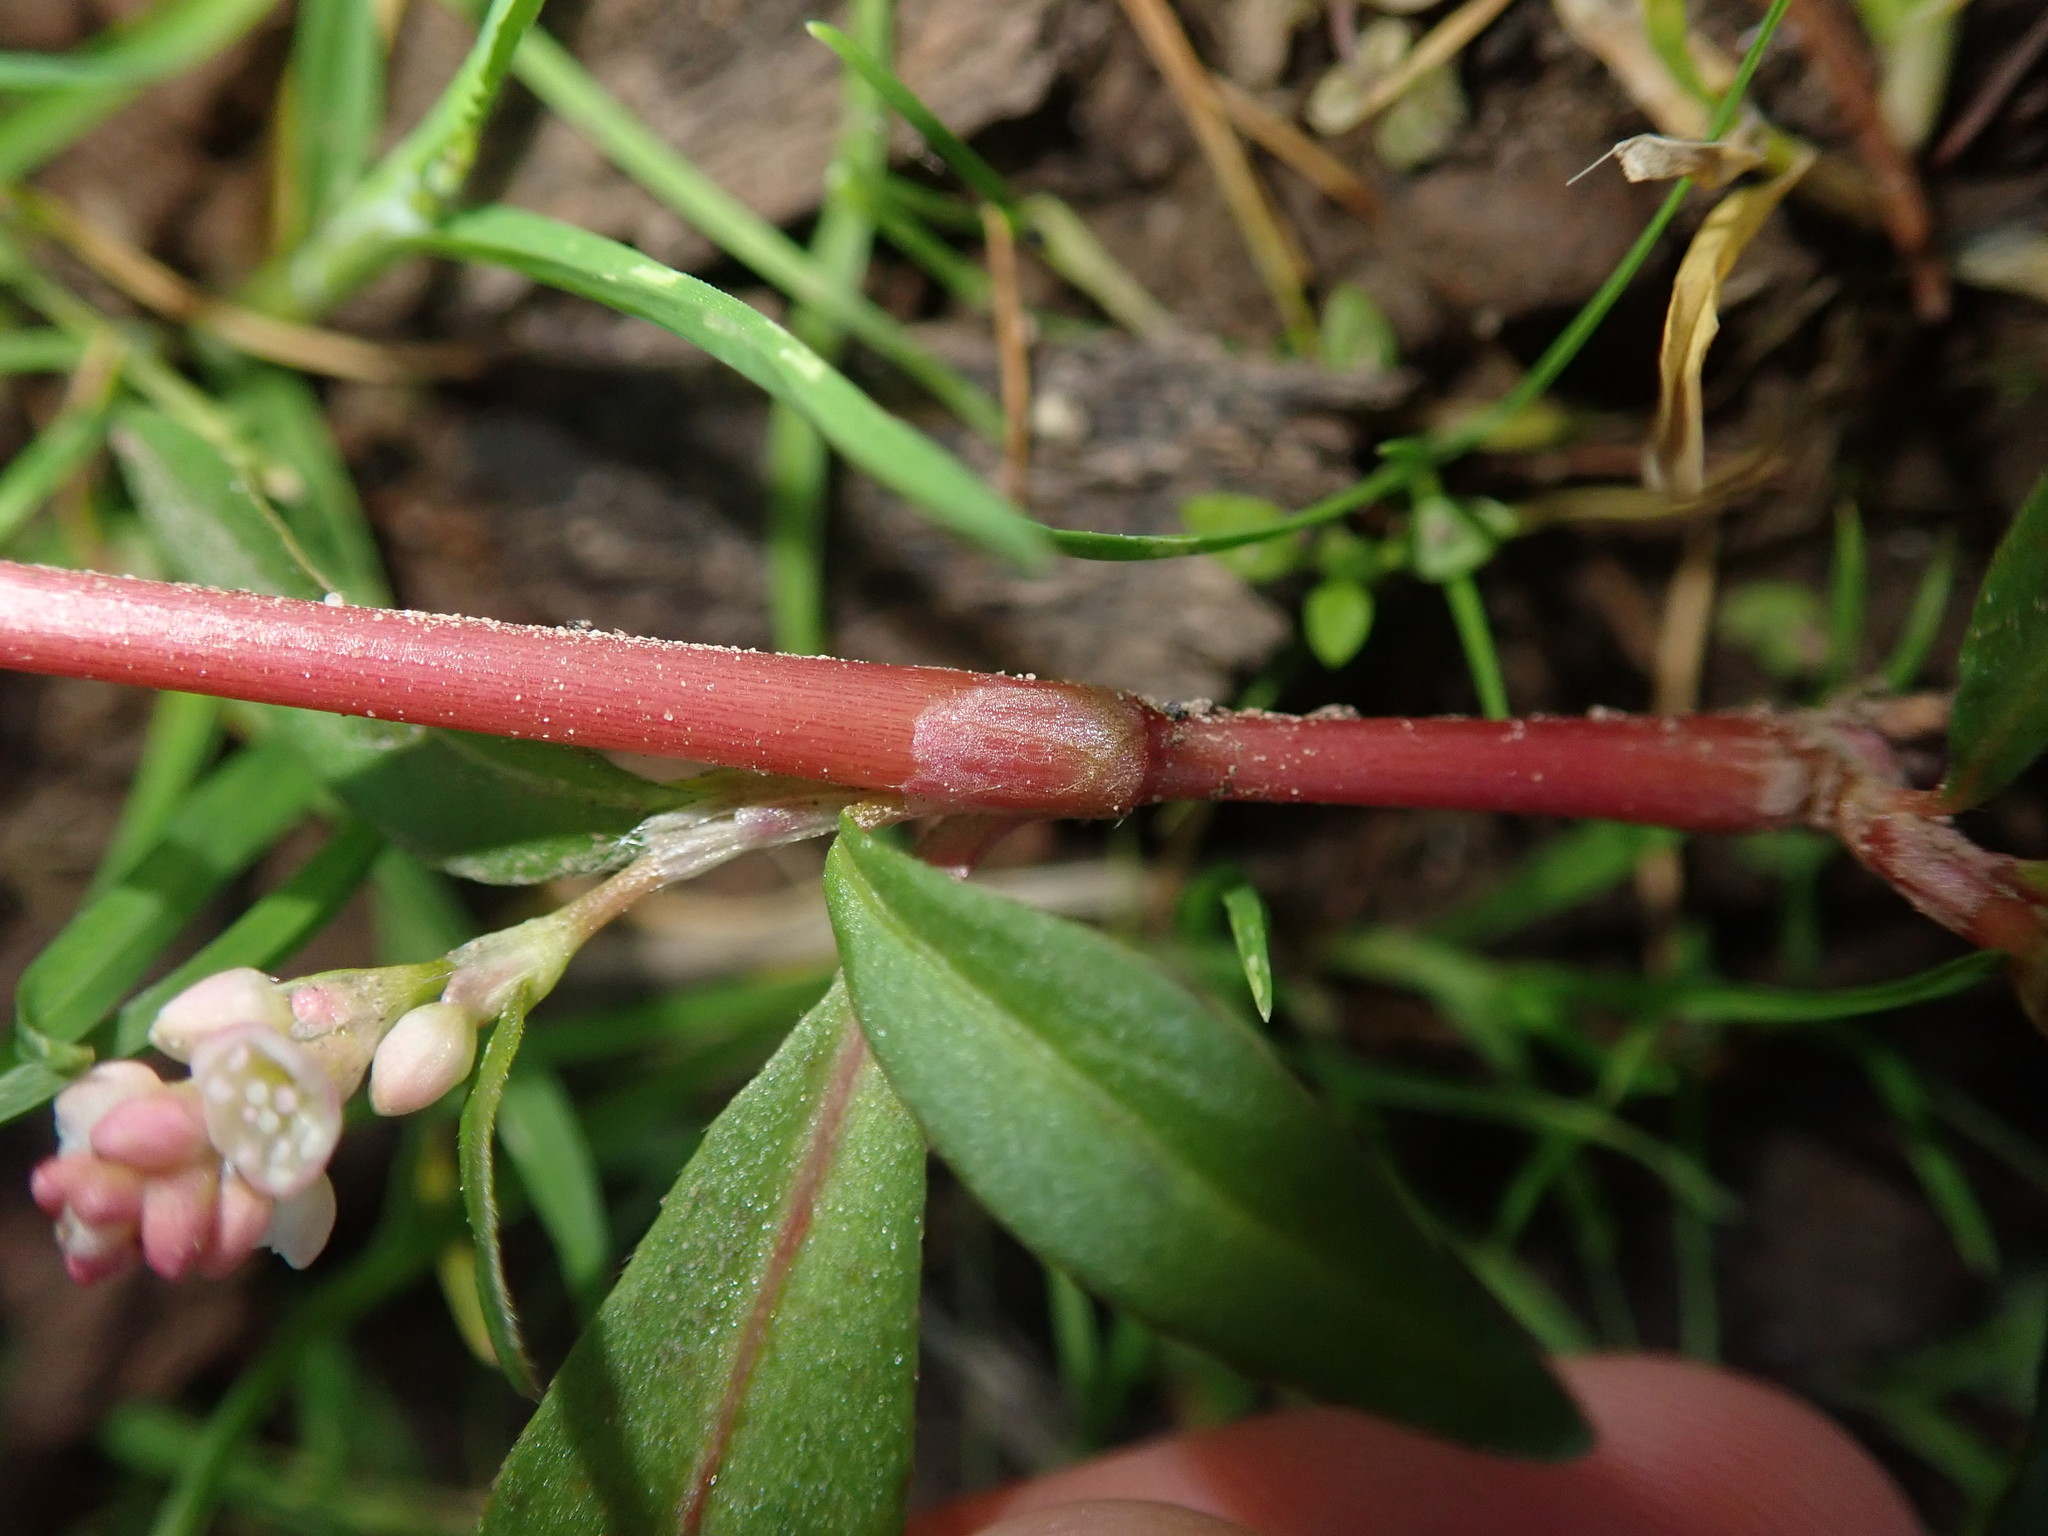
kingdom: Plantae
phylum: Tracheophyta
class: Magnoliopsida
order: Caryophyllales
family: Polygonaceae
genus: Persicaria
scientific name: Persicaria maculosa
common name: Redshank
